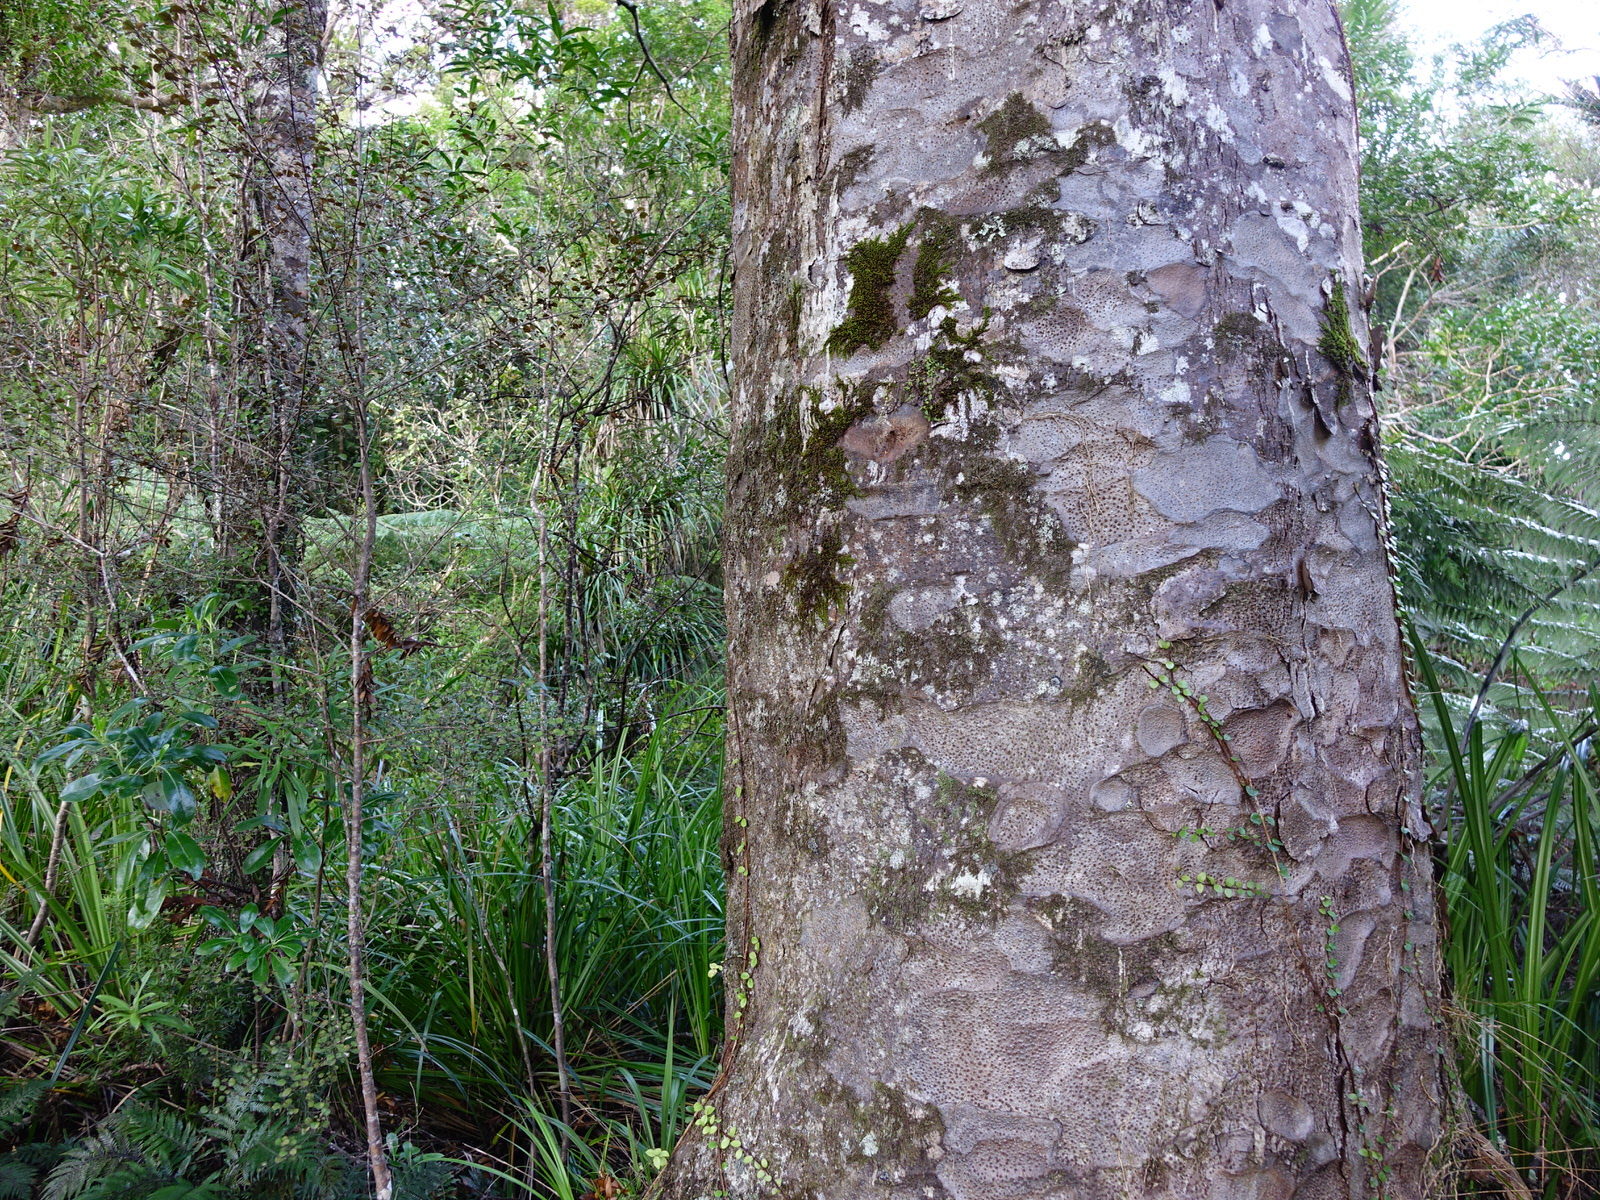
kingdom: Plantae
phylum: Tracheophyta
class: Liliopsida
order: Asparagales
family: Orchidaceae
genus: Bulbophyllum
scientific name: Bulbophyllum pygmaeum
